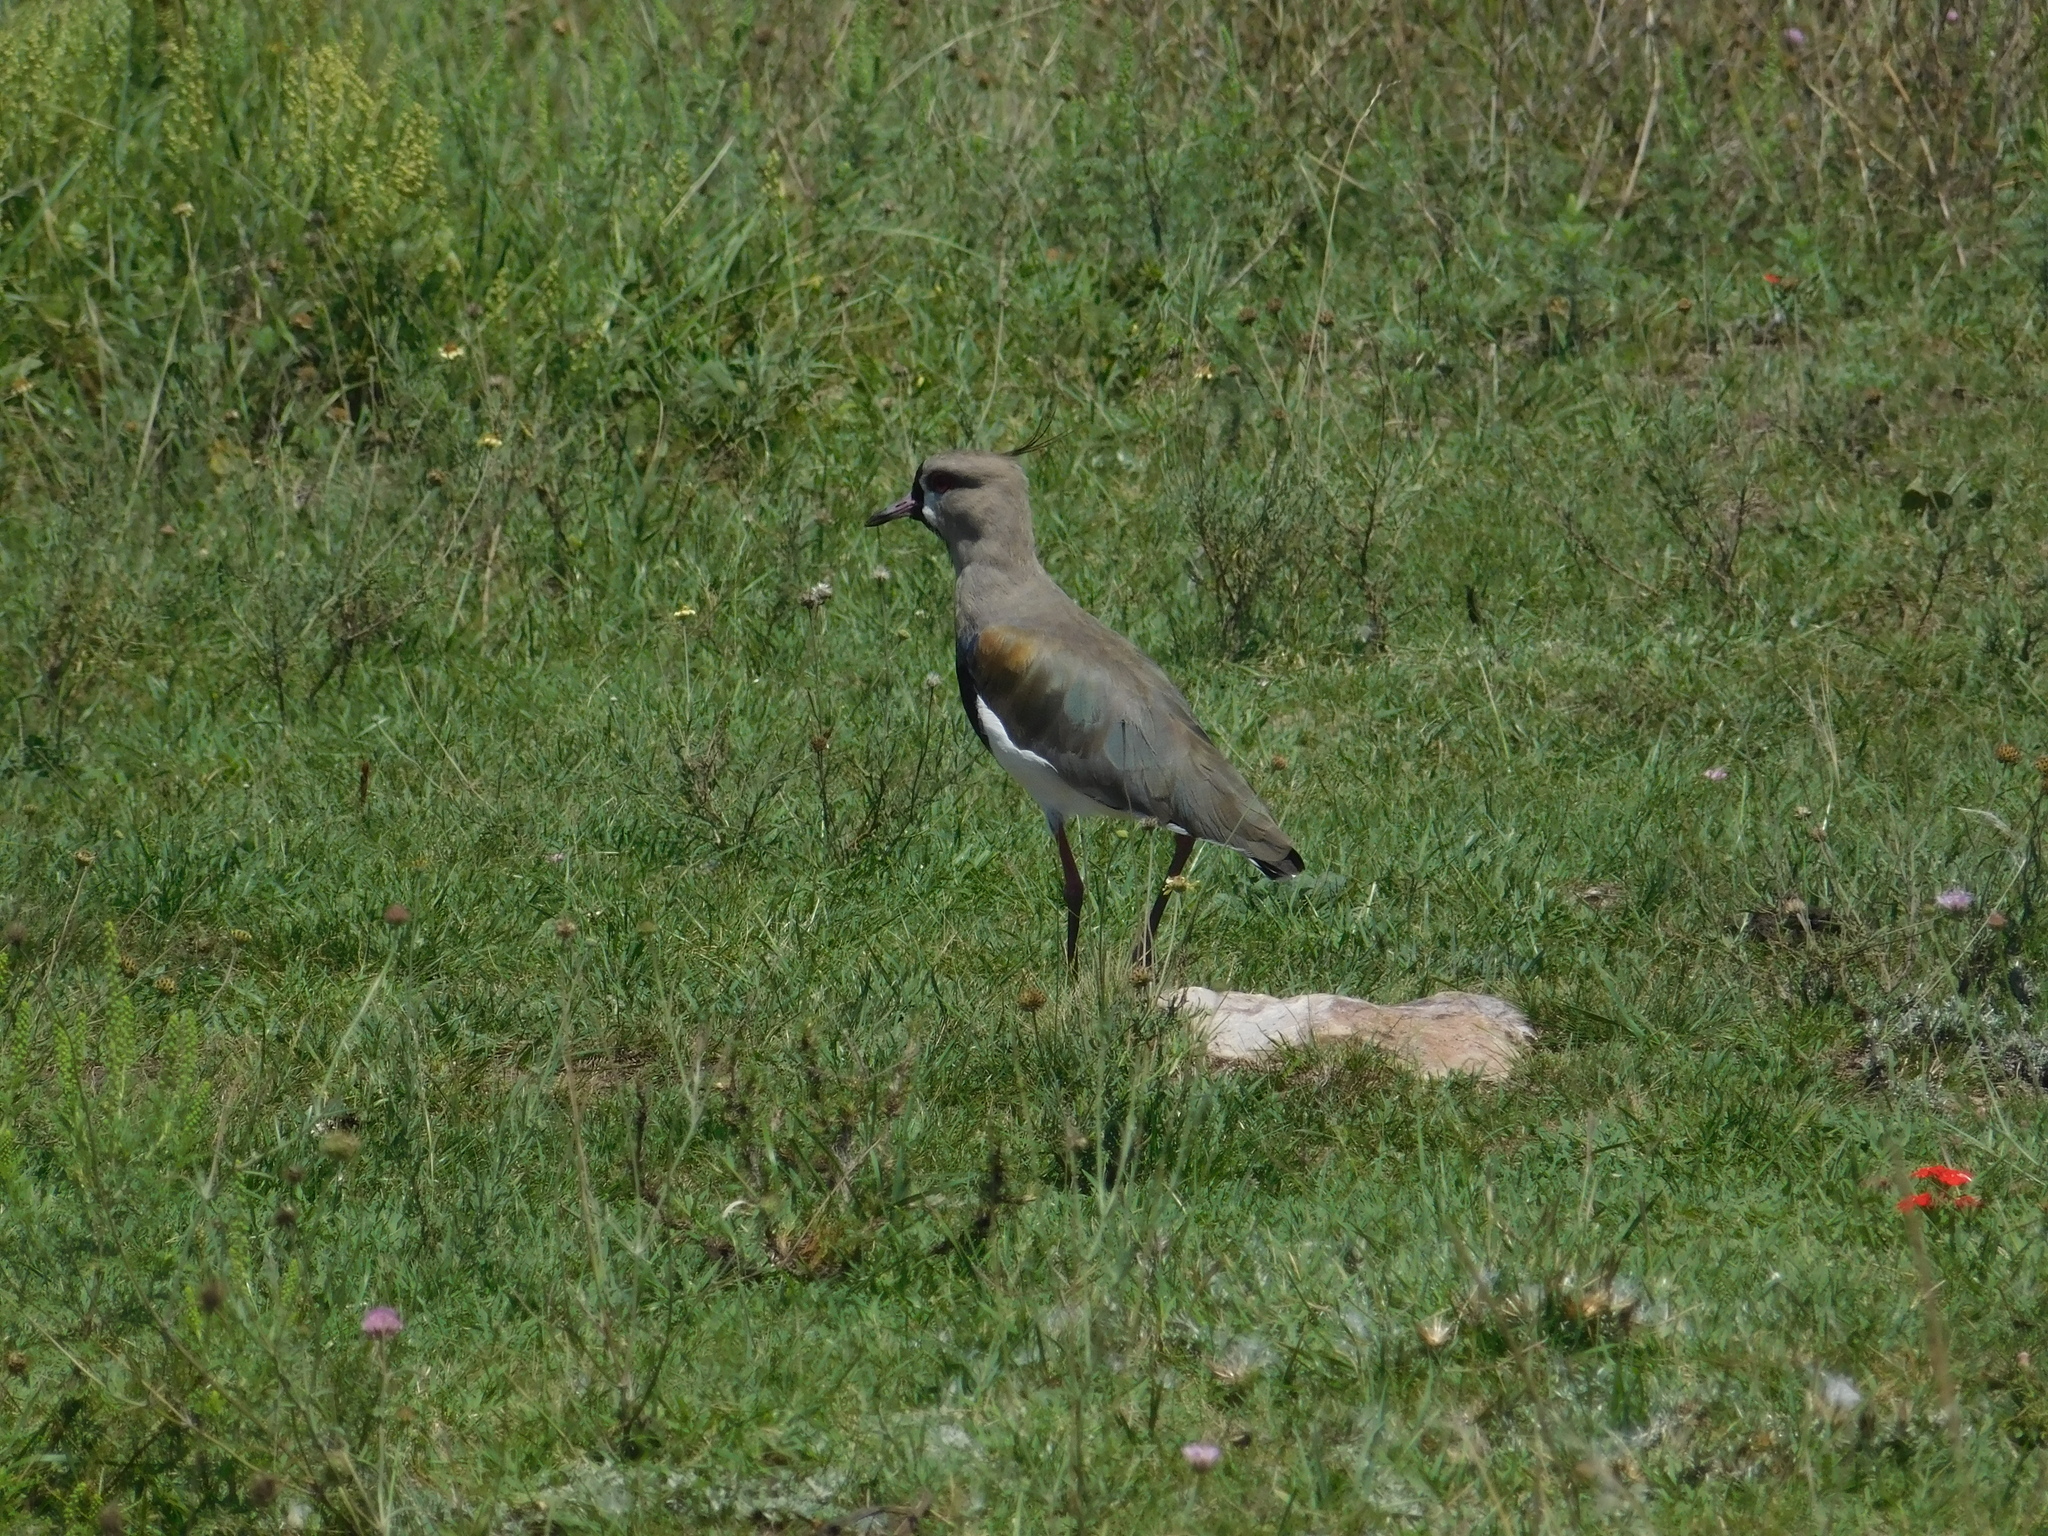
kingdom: Animalia
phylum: Chordata
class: Aves
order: Charadriiformes
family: Charadriidae
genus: Vanellus
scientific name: Vanellus chilensis
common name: Southern lapwing
